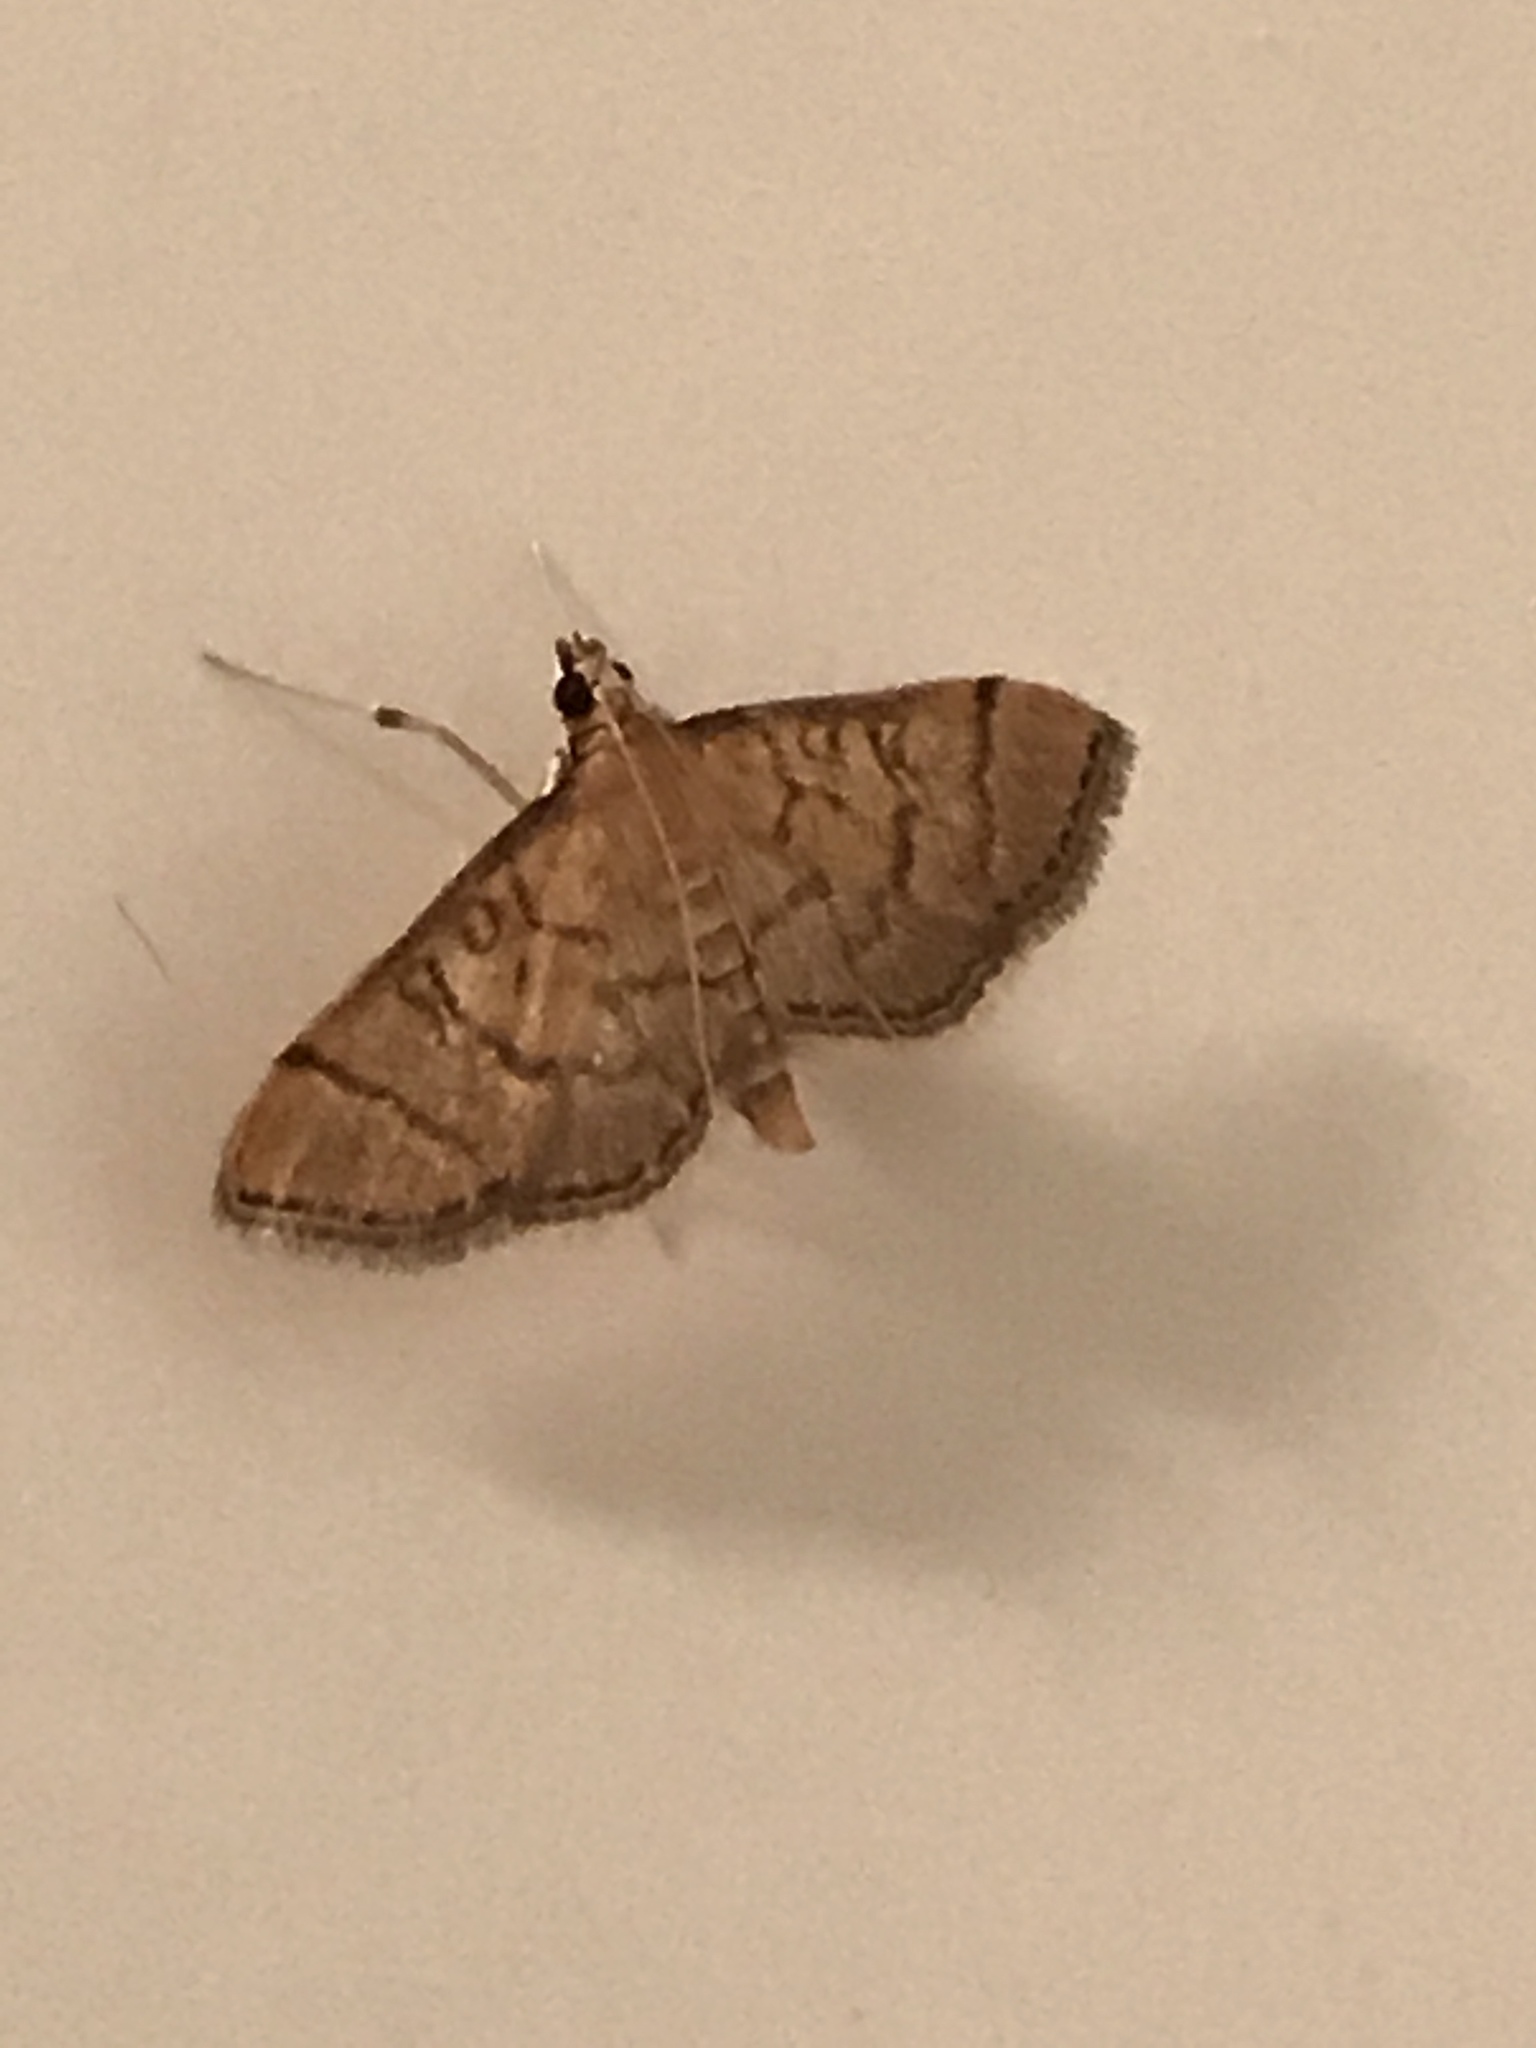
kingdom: Animalia
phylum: Arthropoda
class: Insecta
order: Lepidoptera
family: Crambidae
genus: Lamprosema
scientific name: Lamprosema Blepharomastix ranalis
